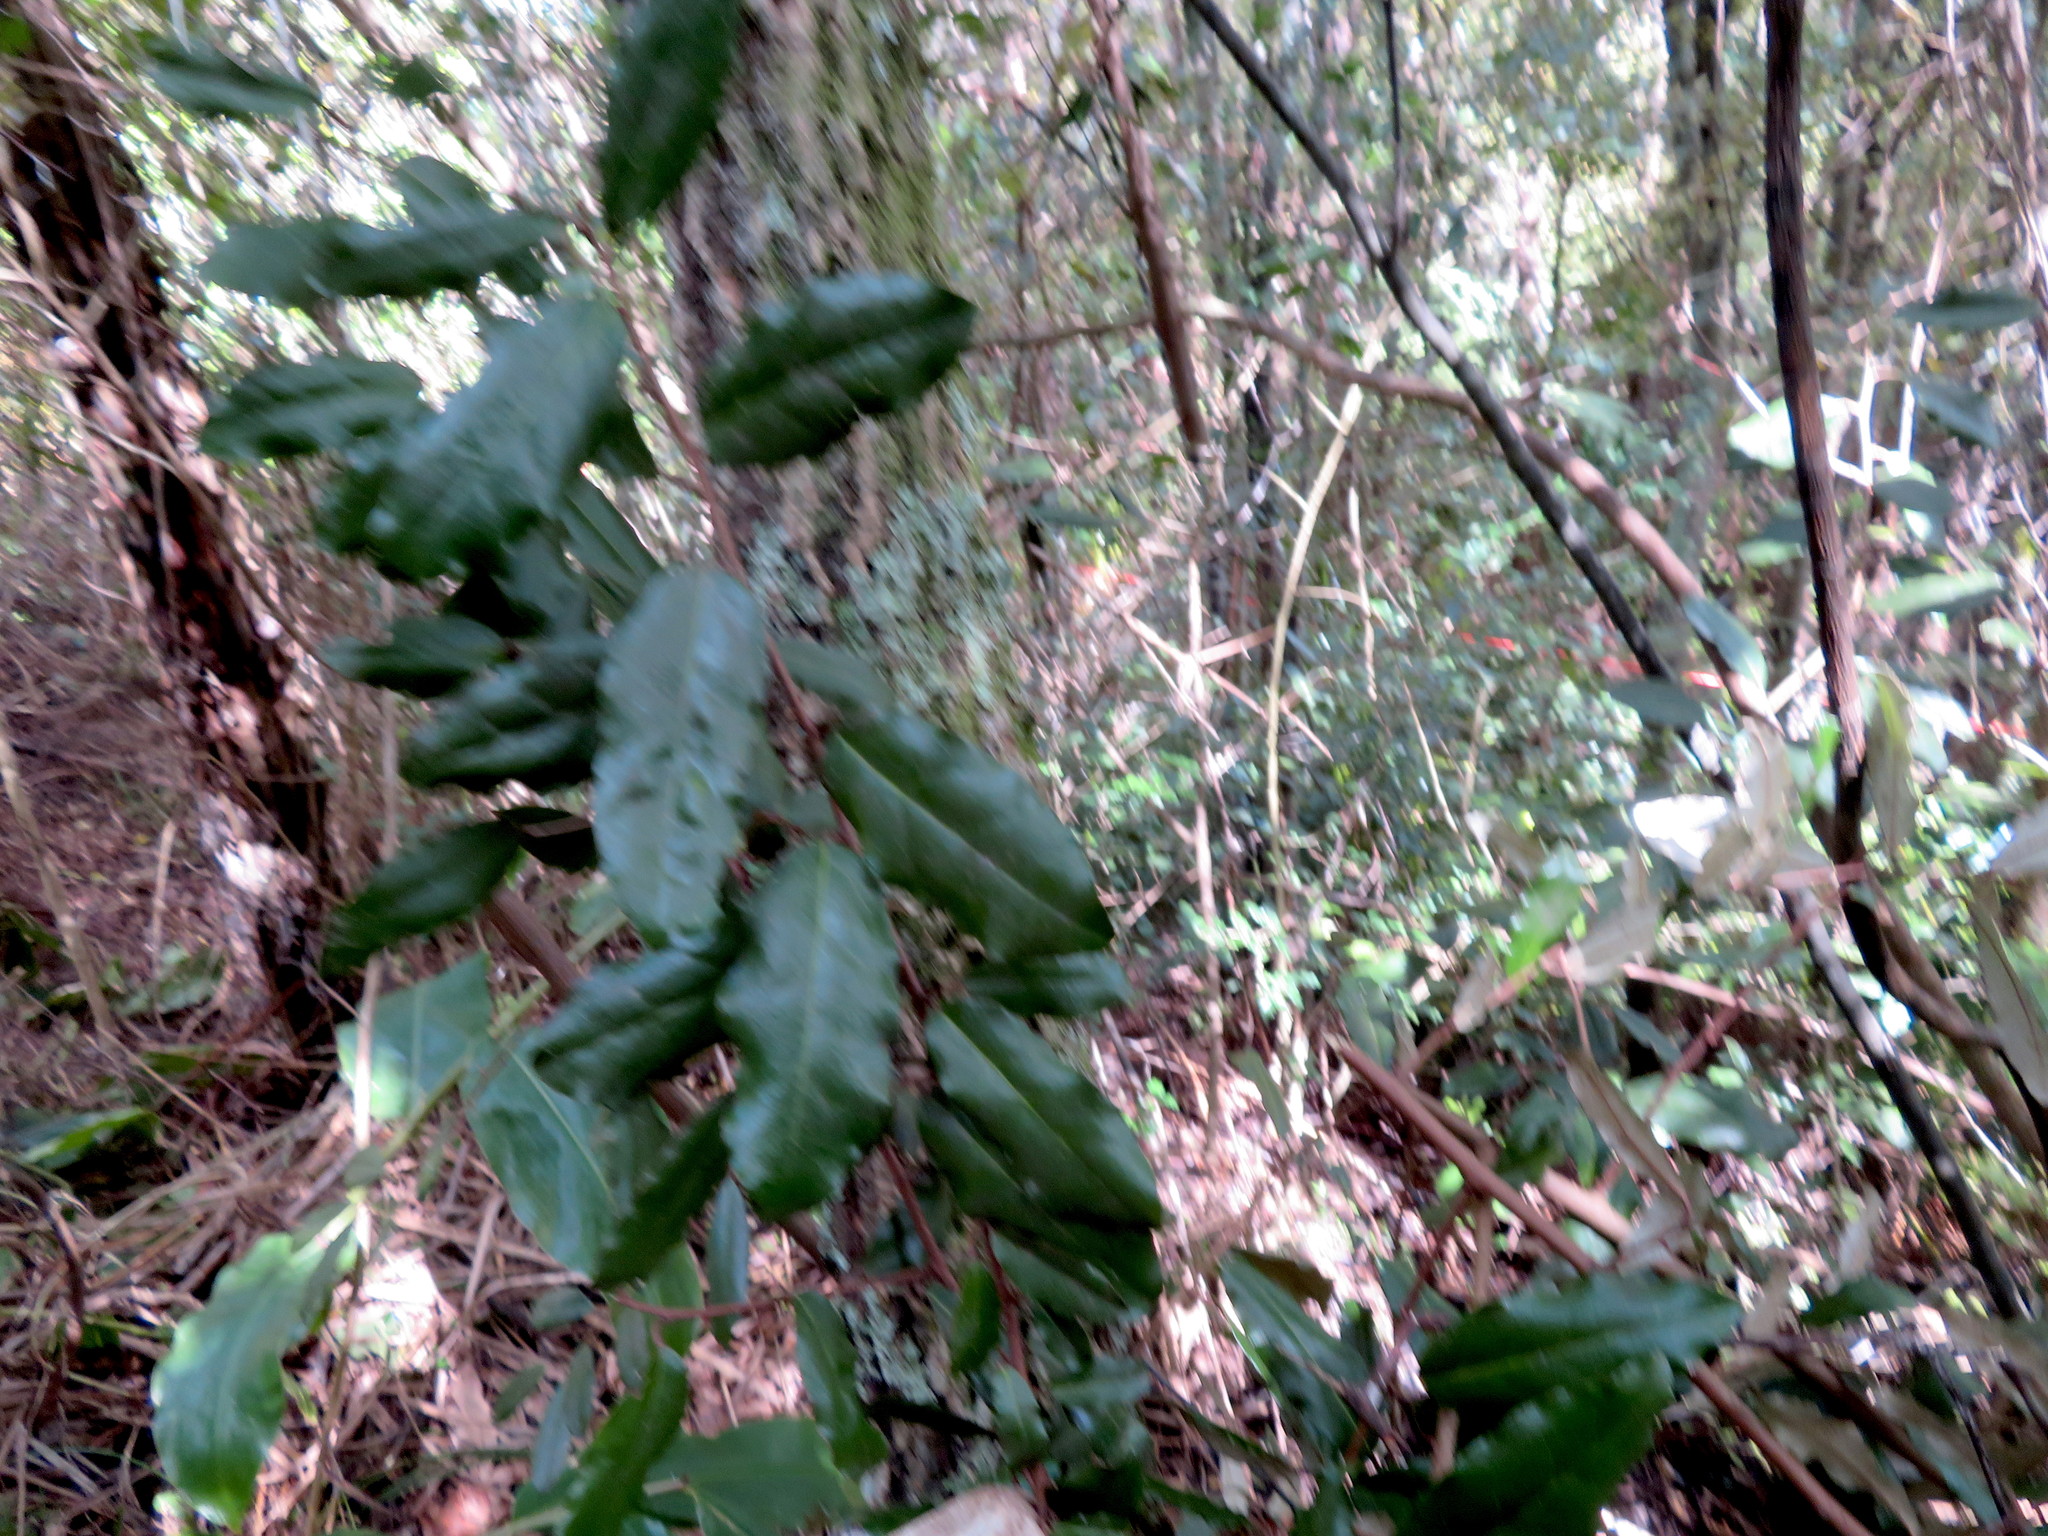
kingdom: Plantae
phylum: Tracheophyta
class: Magnoliopsida
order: Rosales
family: Elaeagnaceae
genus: Elaeagnus
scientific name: Elaeagnus reflexa
